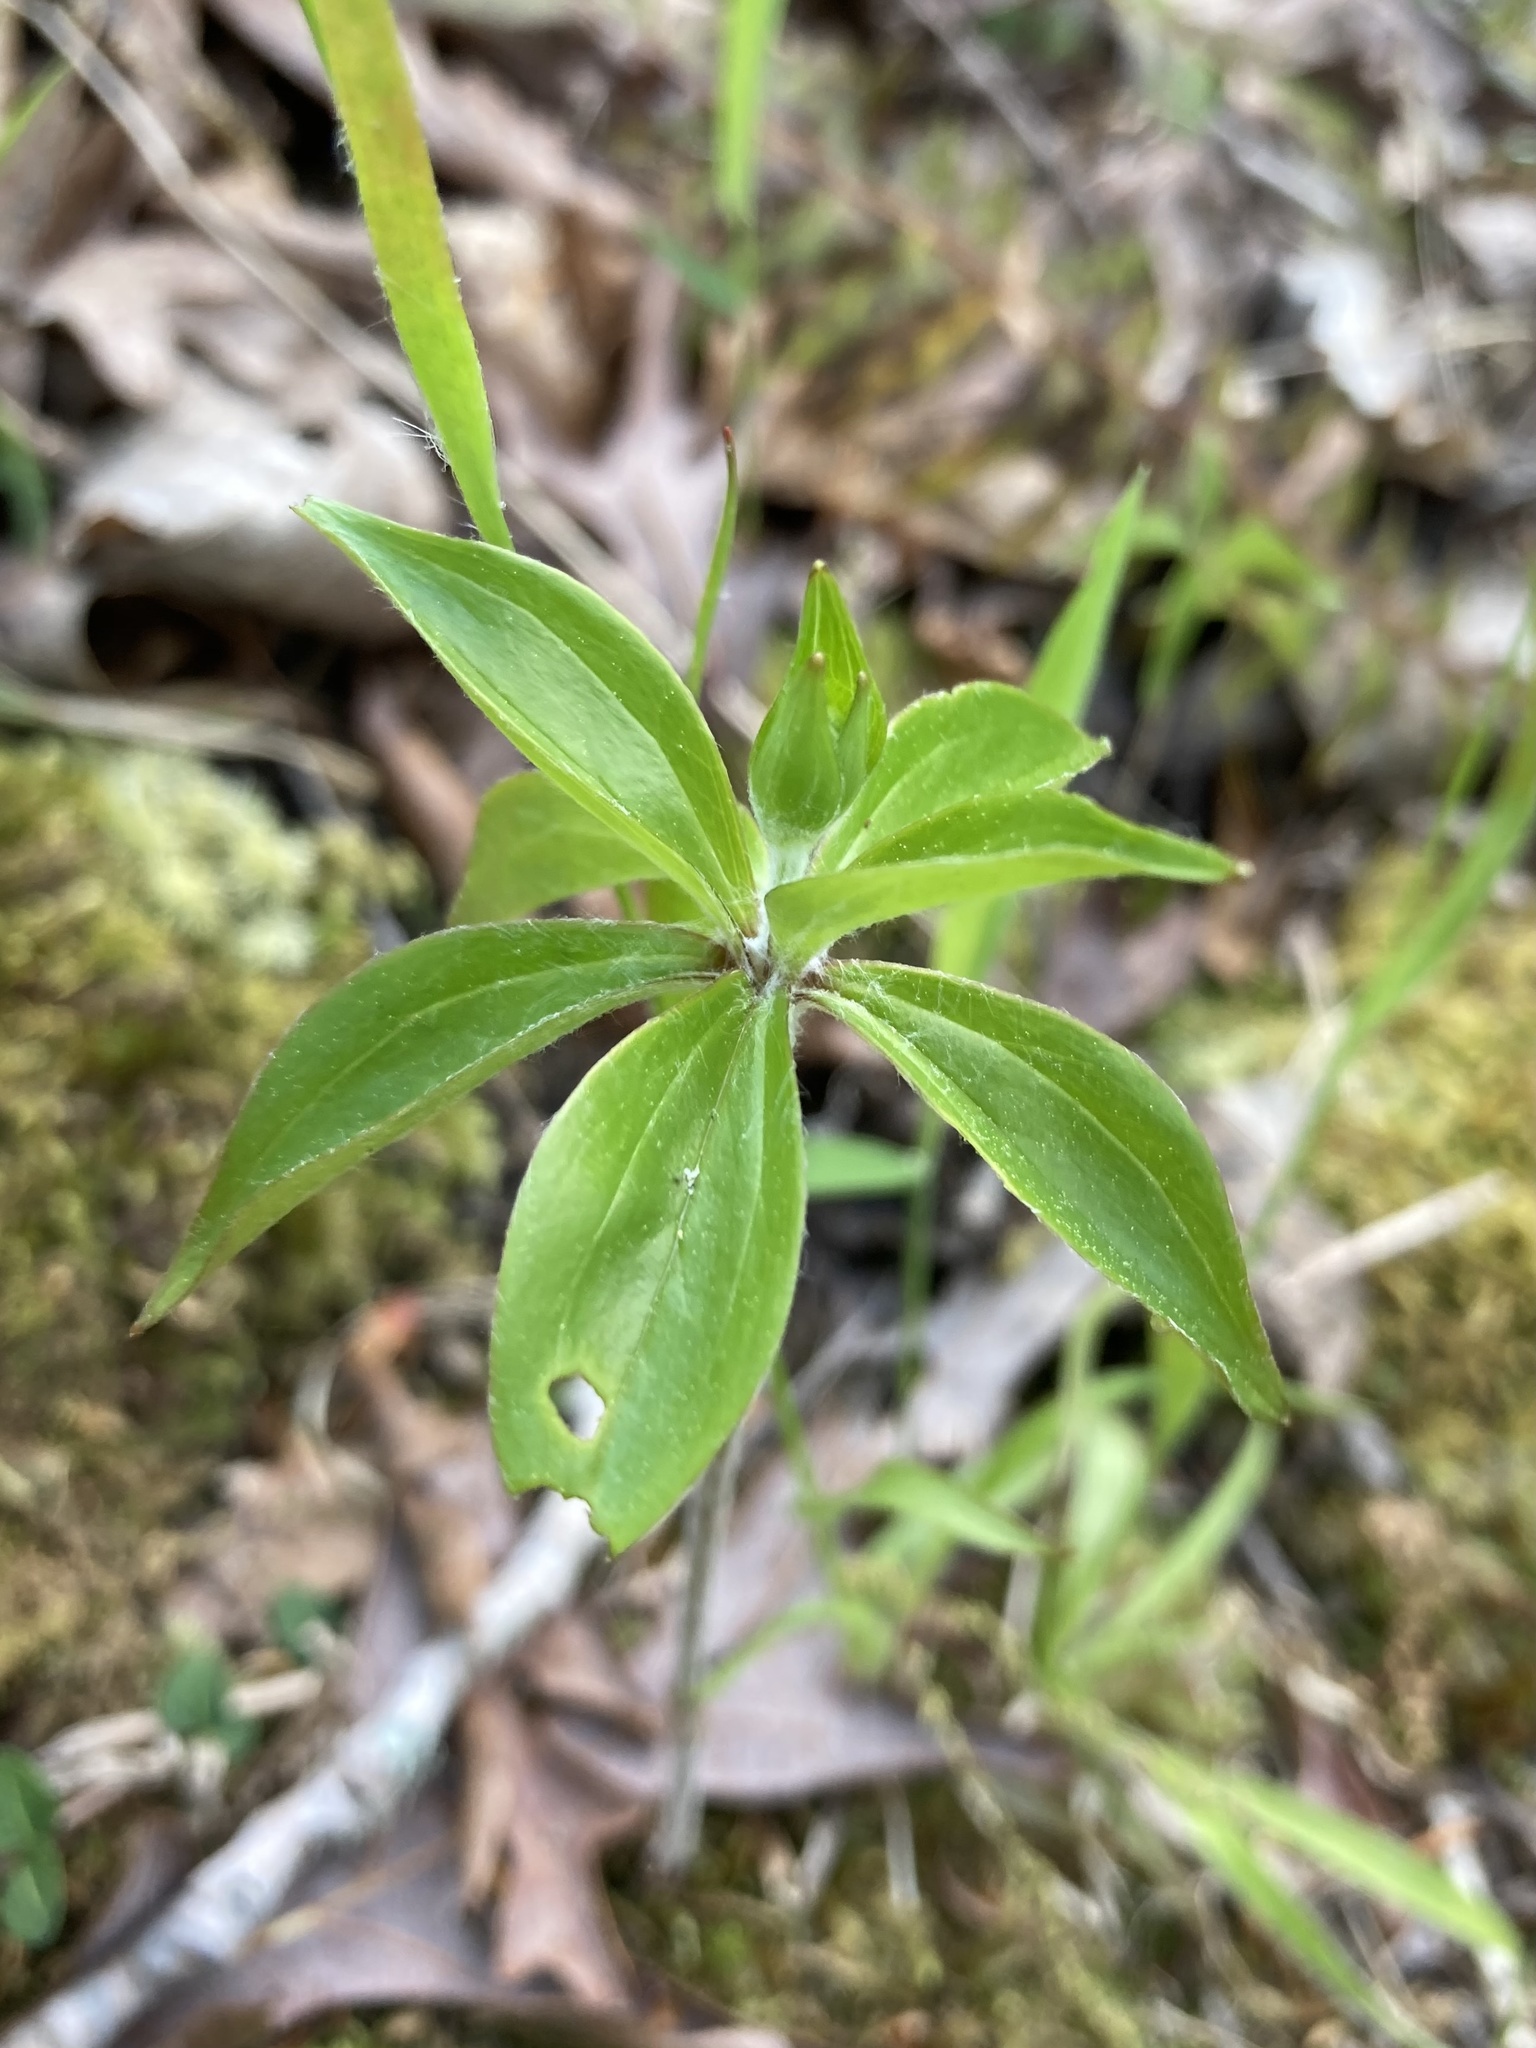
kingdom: Plantae
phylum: Tracheophyta
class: Liliopsida
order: Liliales
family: Liliaceae
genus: Medeola
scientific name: Medeola virginiana
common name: Indian cucumber-root
